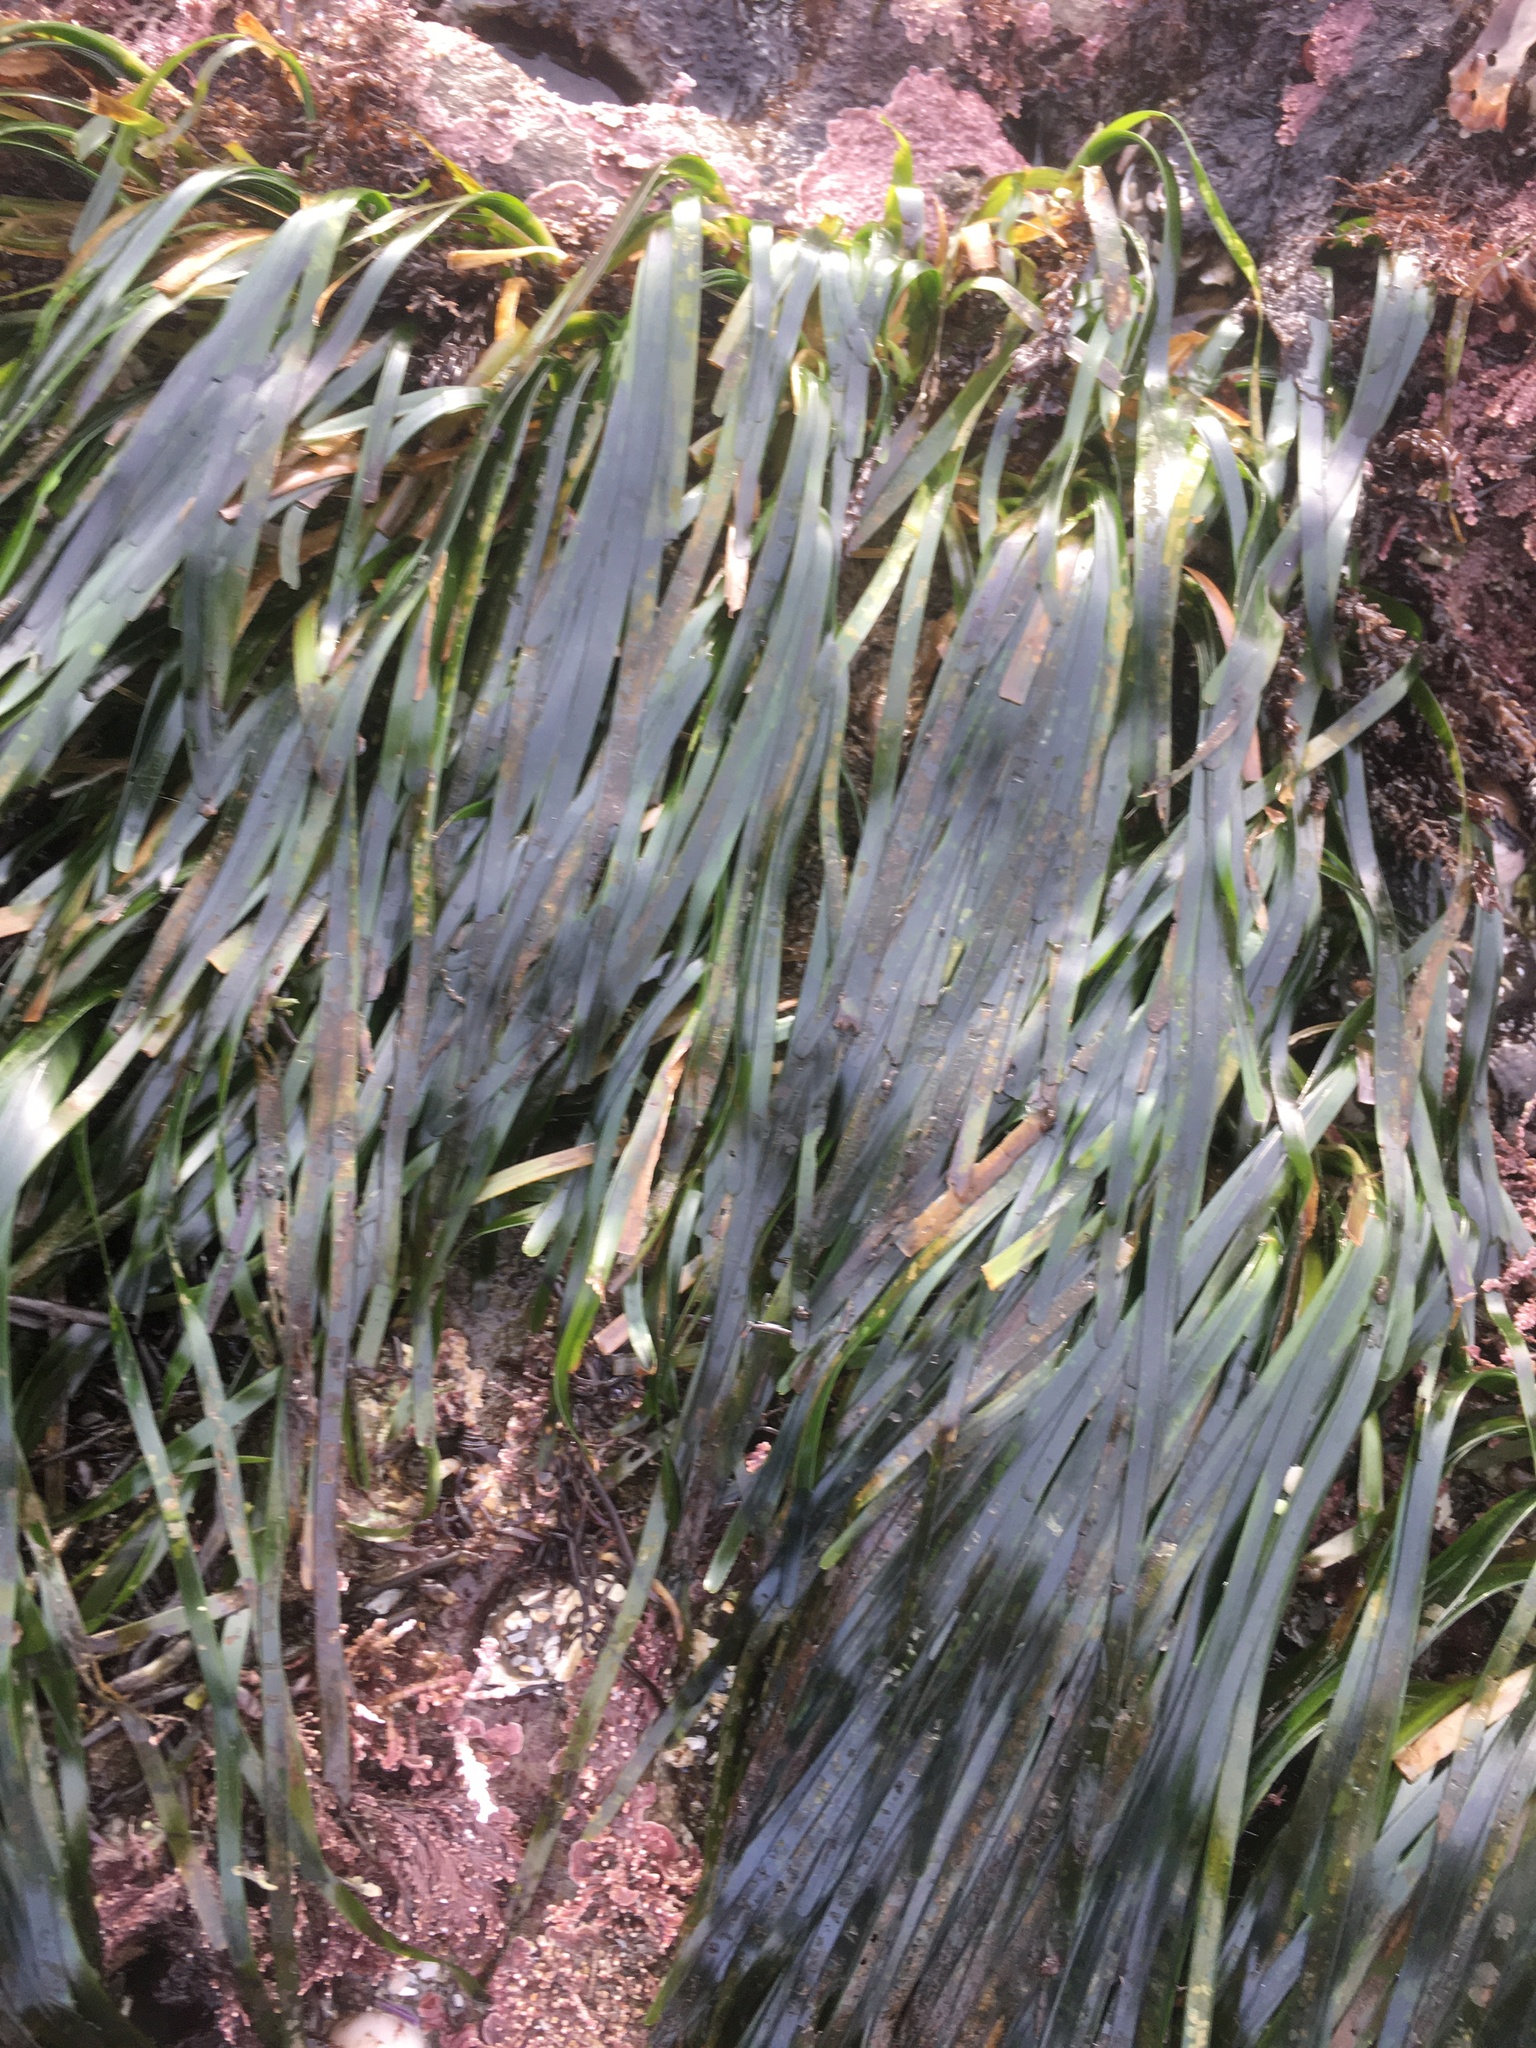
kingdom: Plantae
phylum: Tracheophyta
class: Liliopsida
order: Alismatales
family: Zosteraceae
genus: Phyllospadix
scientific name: Phyllospadix scouleri
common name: Species code: ps
